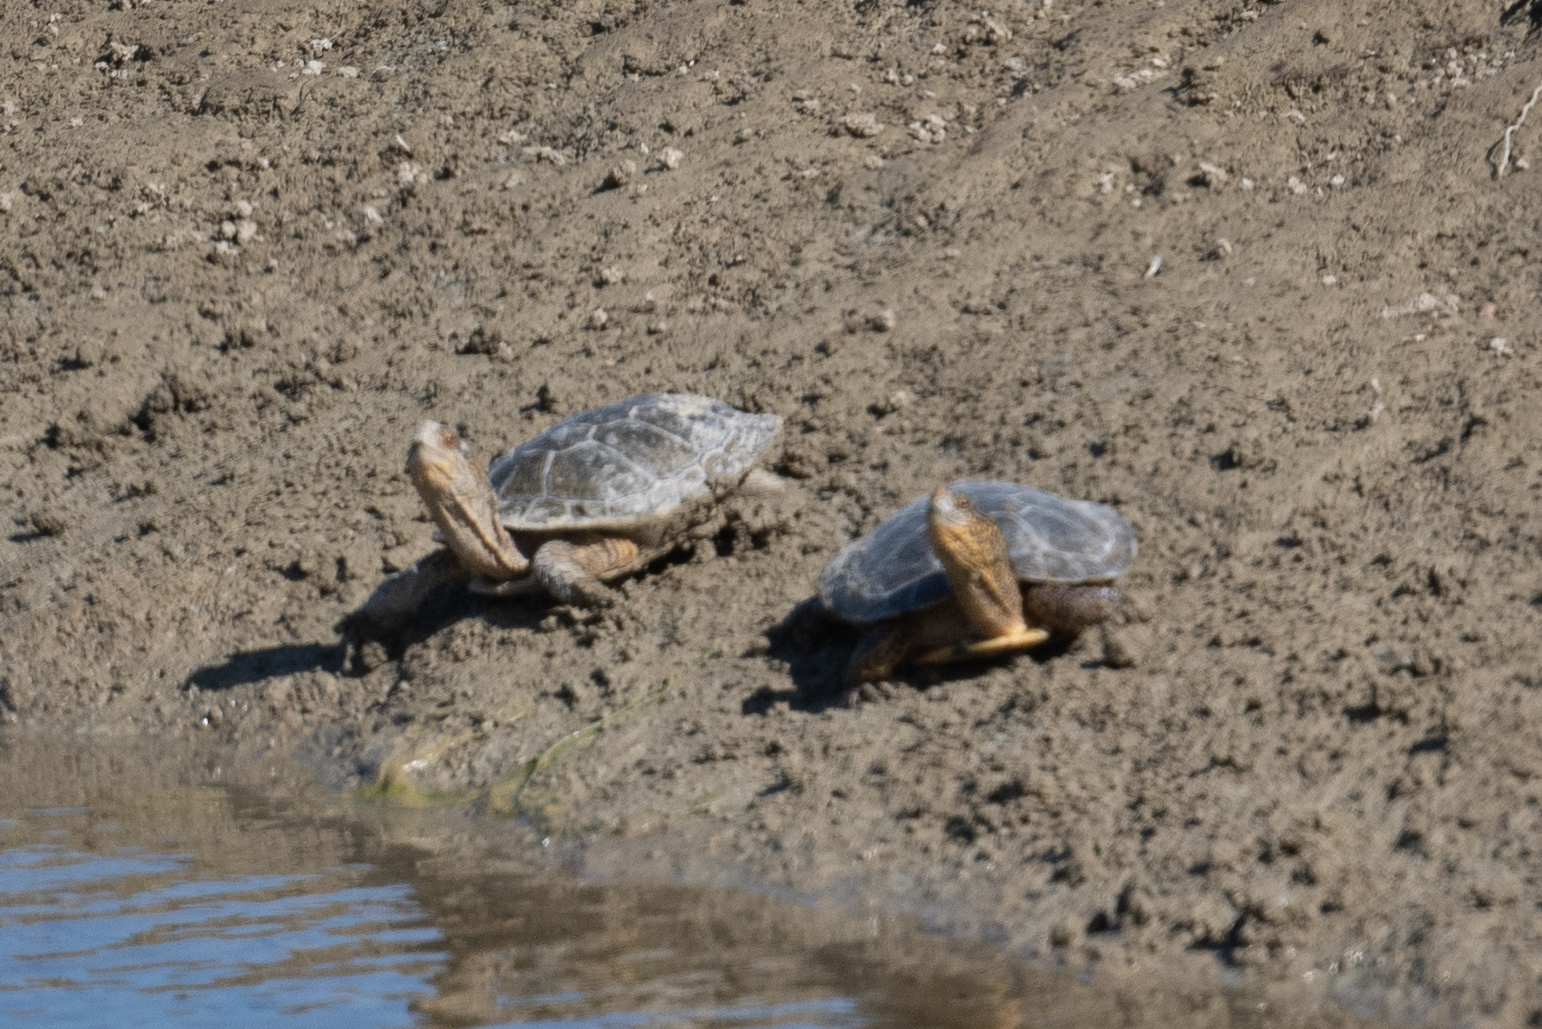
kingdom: Animalia
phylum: Chordata
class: Testudines
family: Emydidae
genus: Actinemys
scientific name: Actinemys marmorata
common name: Western pond turtle
